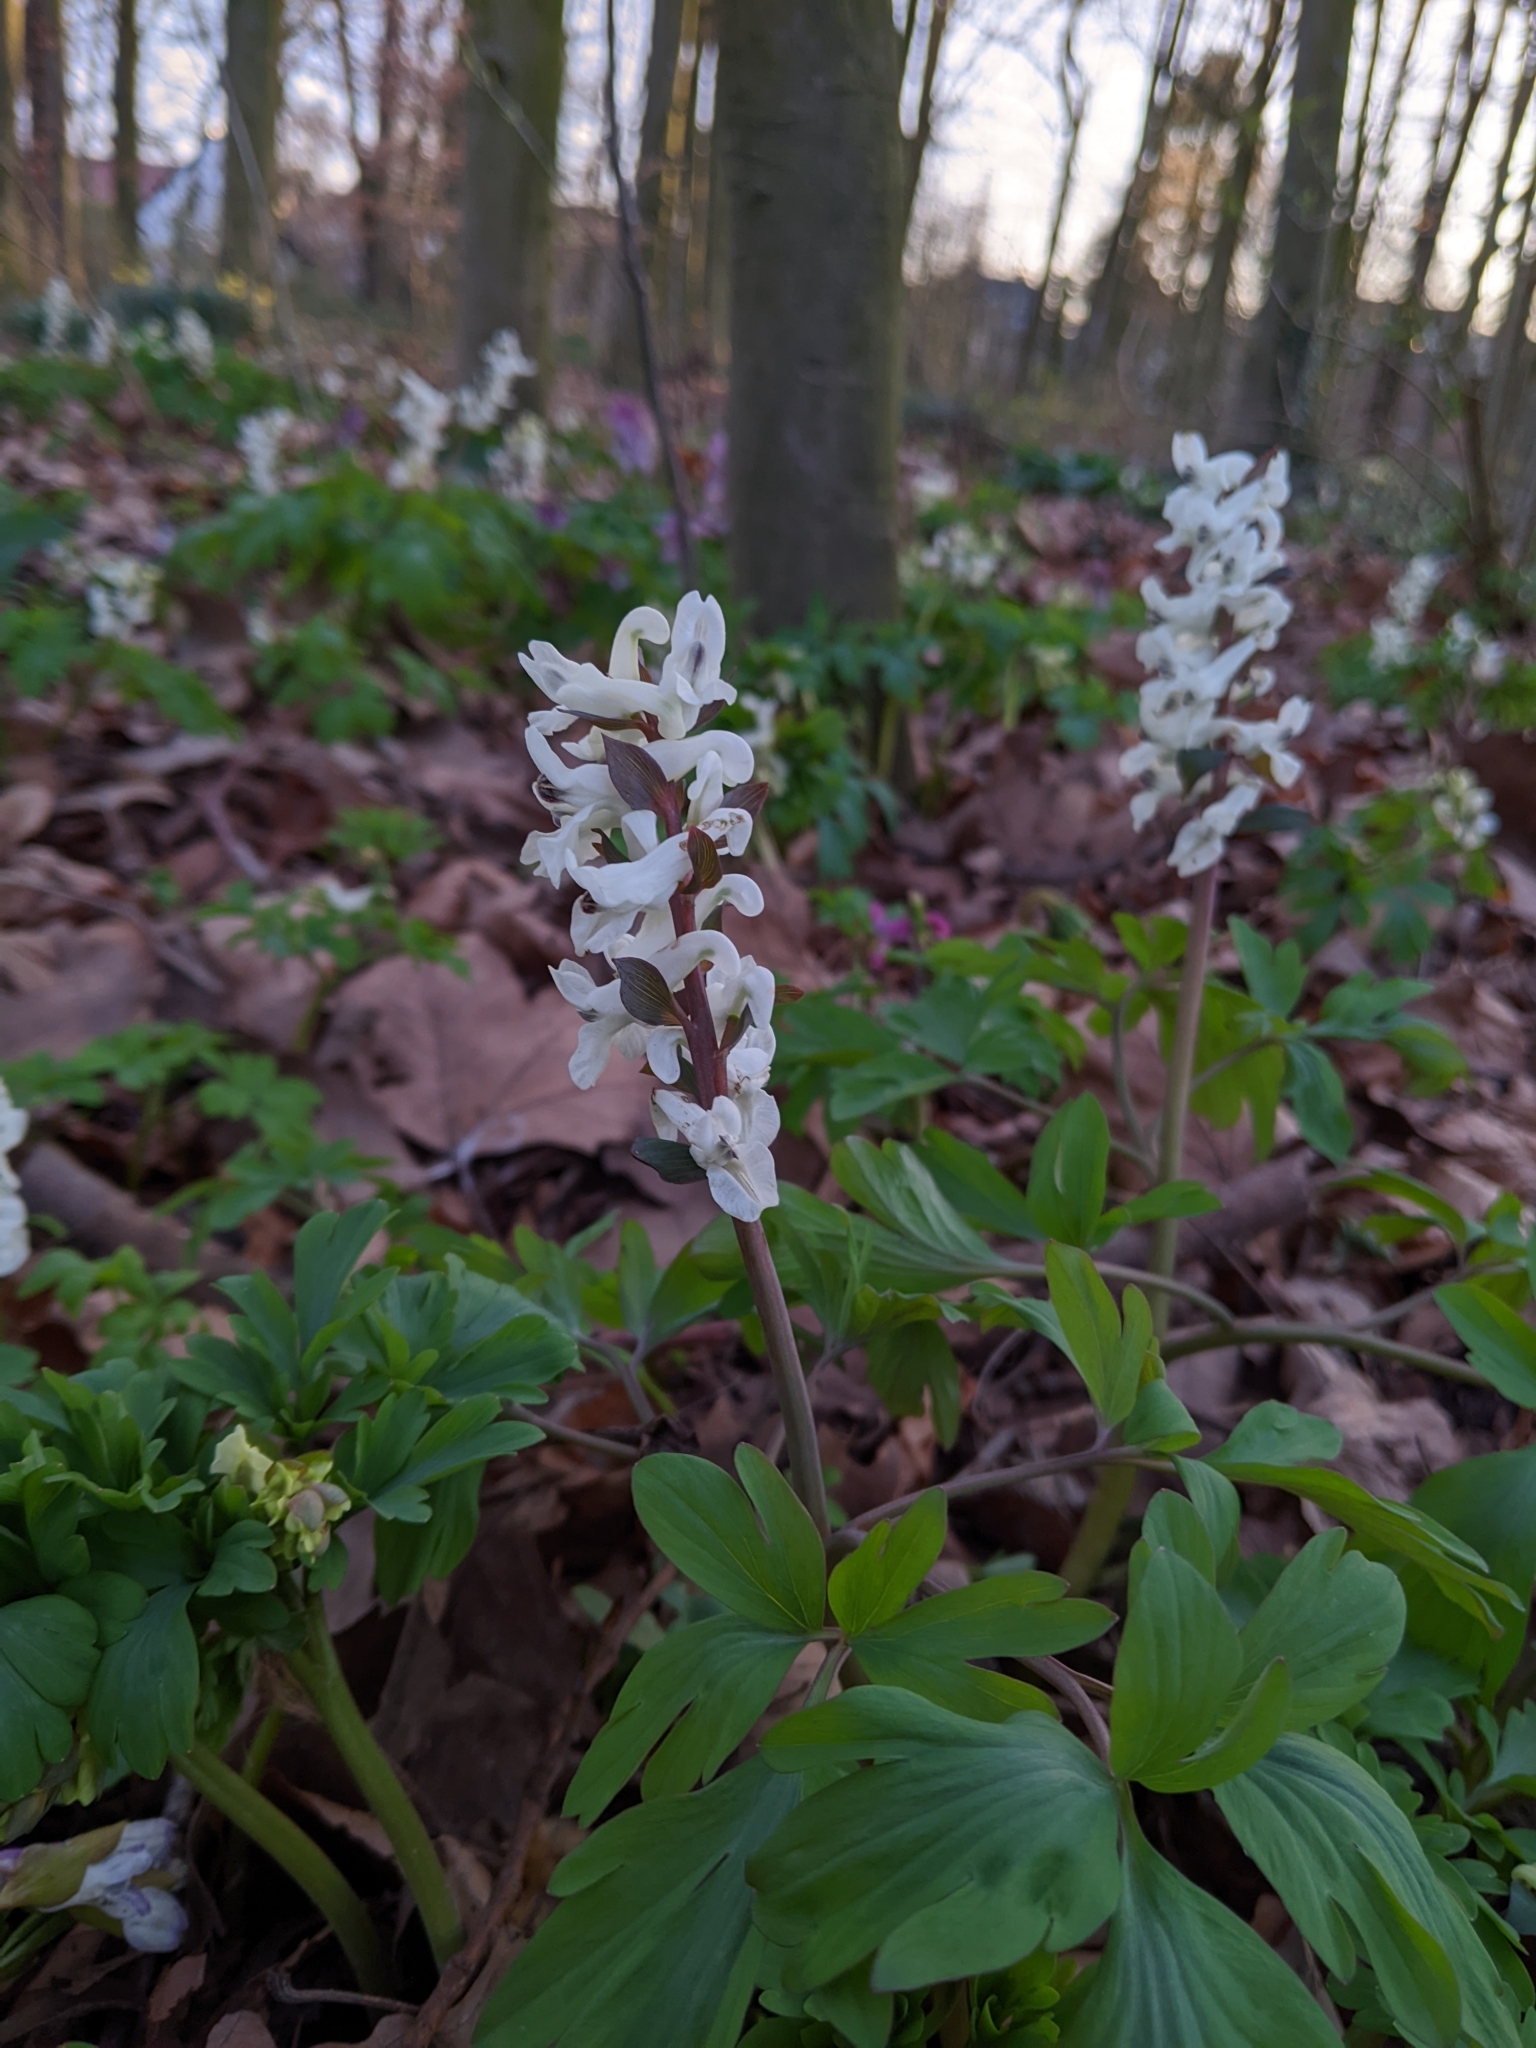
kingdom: Plantae
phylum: Tracheophyta
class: Magnoliopsida
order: Ranunculales
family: Papaveraceae
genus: Corydalis
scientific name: Corydalis cava
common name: Hollowroot
